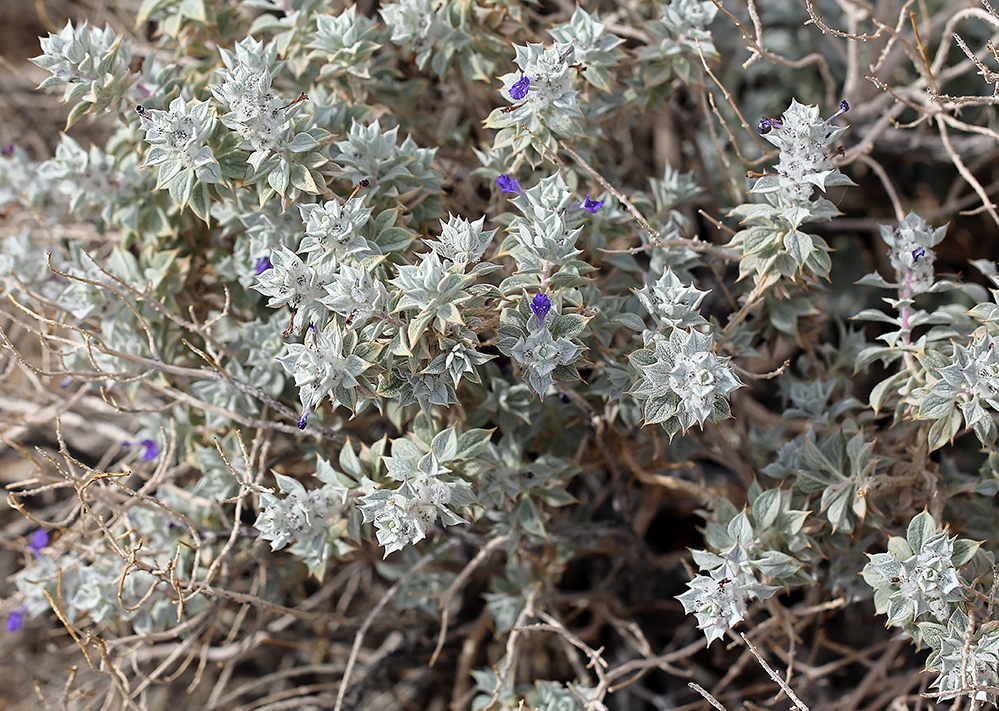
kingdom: Plantae
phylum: Tracheophyta
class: Magnoliopsida
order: Lamiales
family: Lamiaceae
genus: Salvia
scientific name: Salvia funerea
